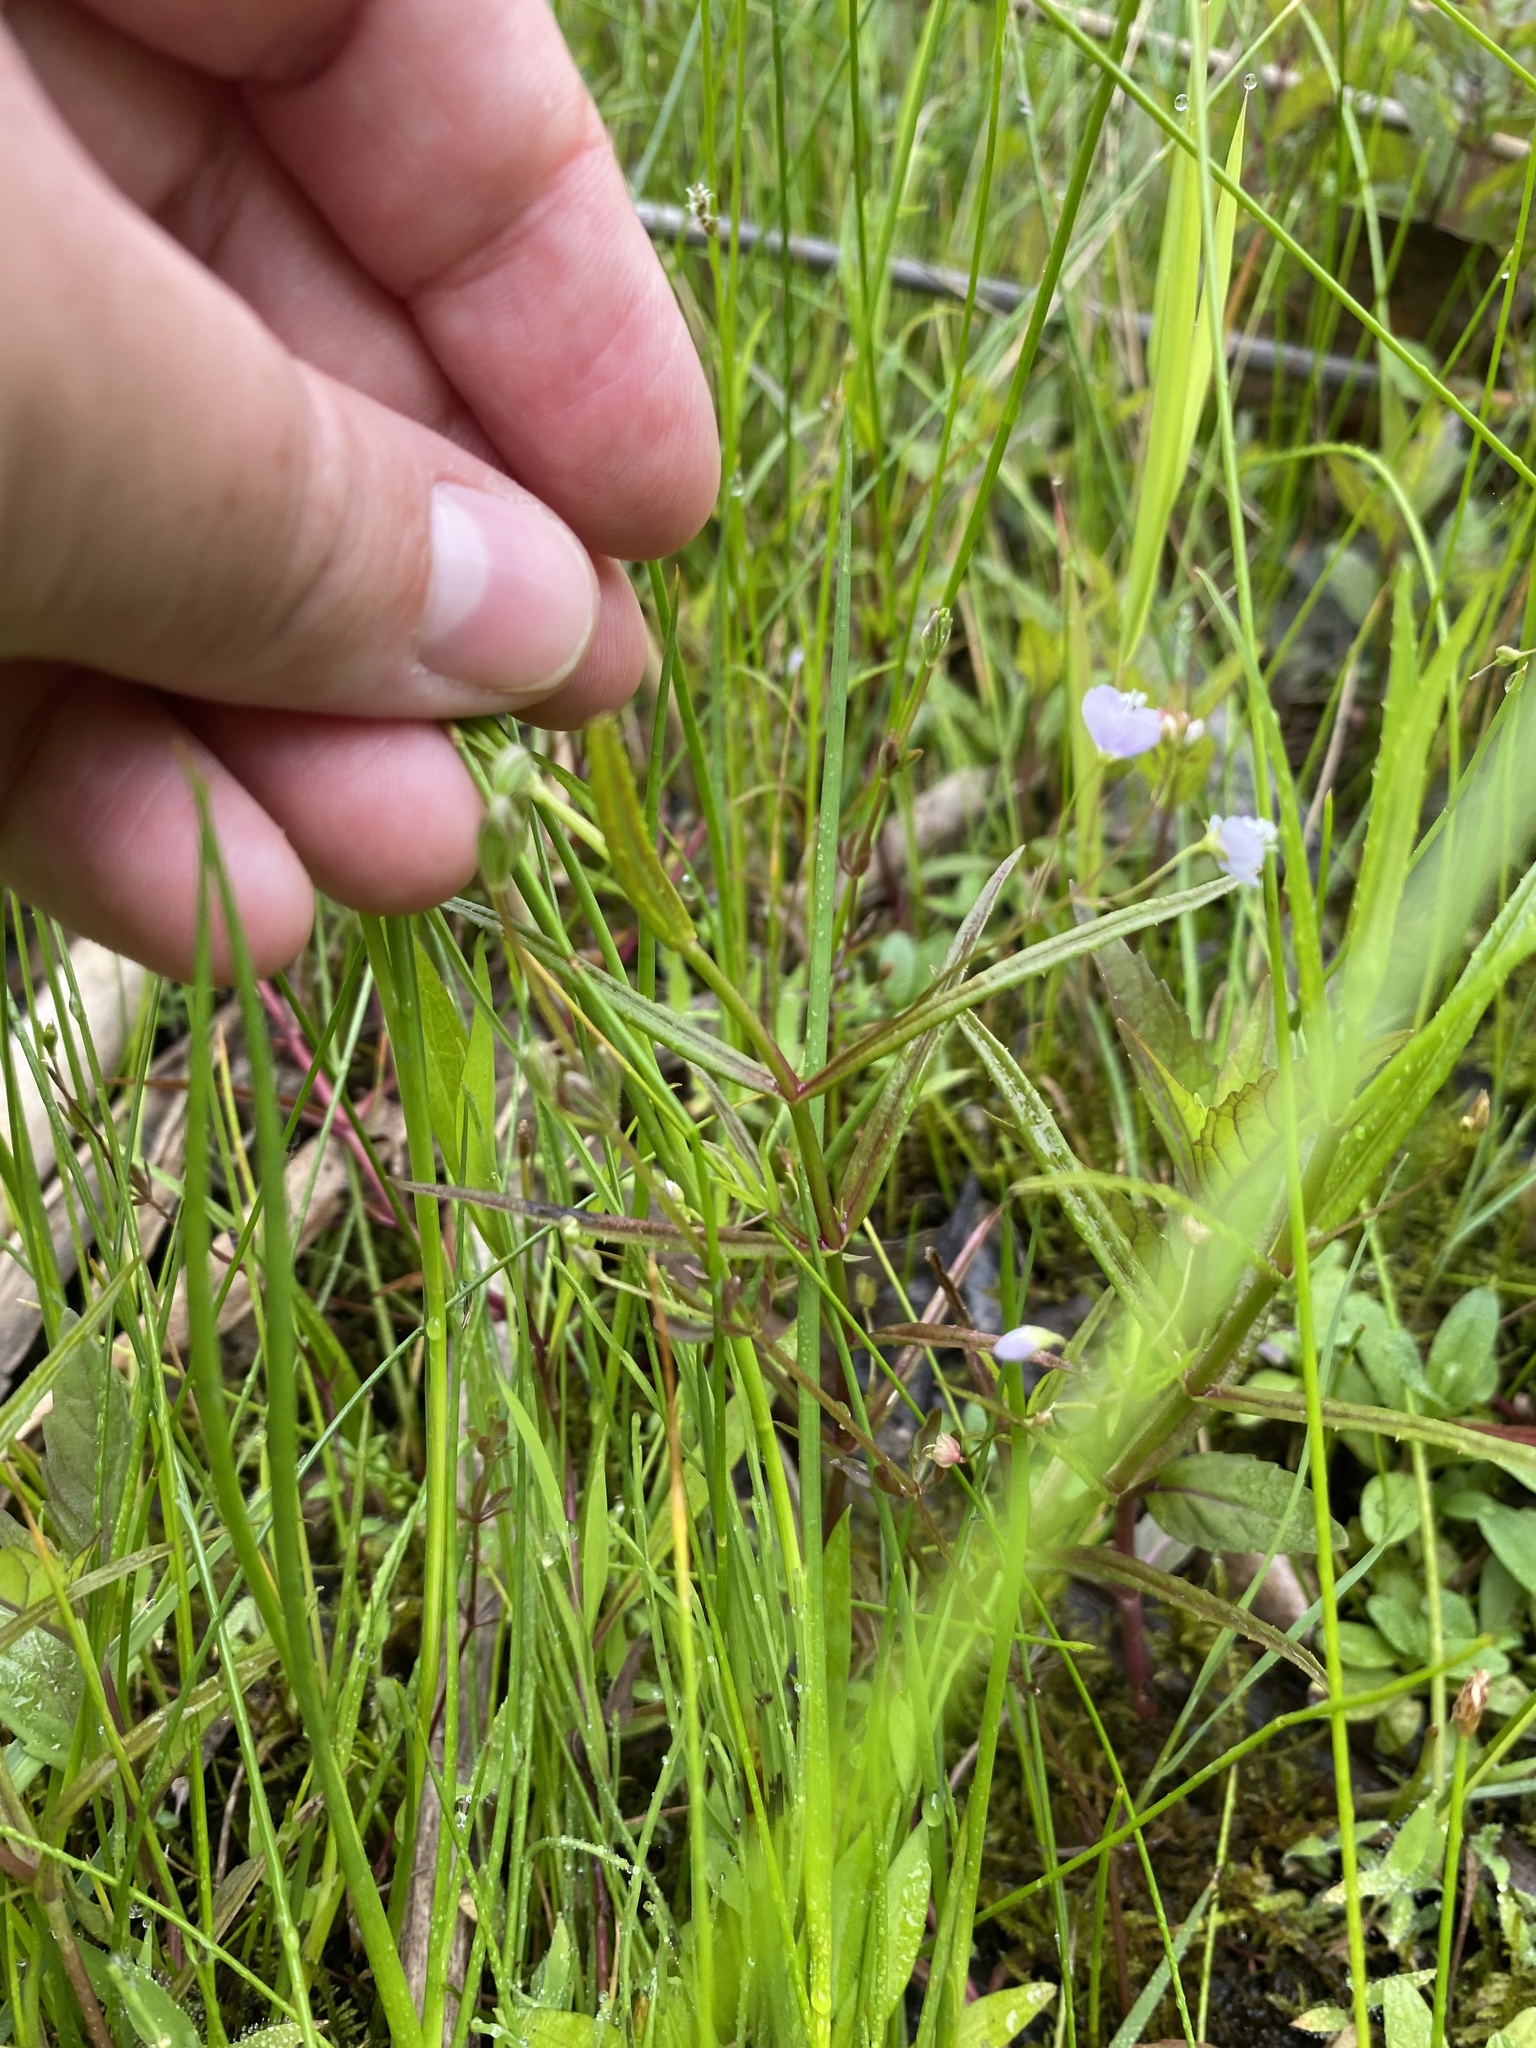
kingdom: Plantae
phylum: Tracheophyta
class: Magnoliopsida
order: Lamiales
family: Plantaginaceae
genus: Veronica
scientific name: Veronica scutellata
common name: Marsh speedwell
